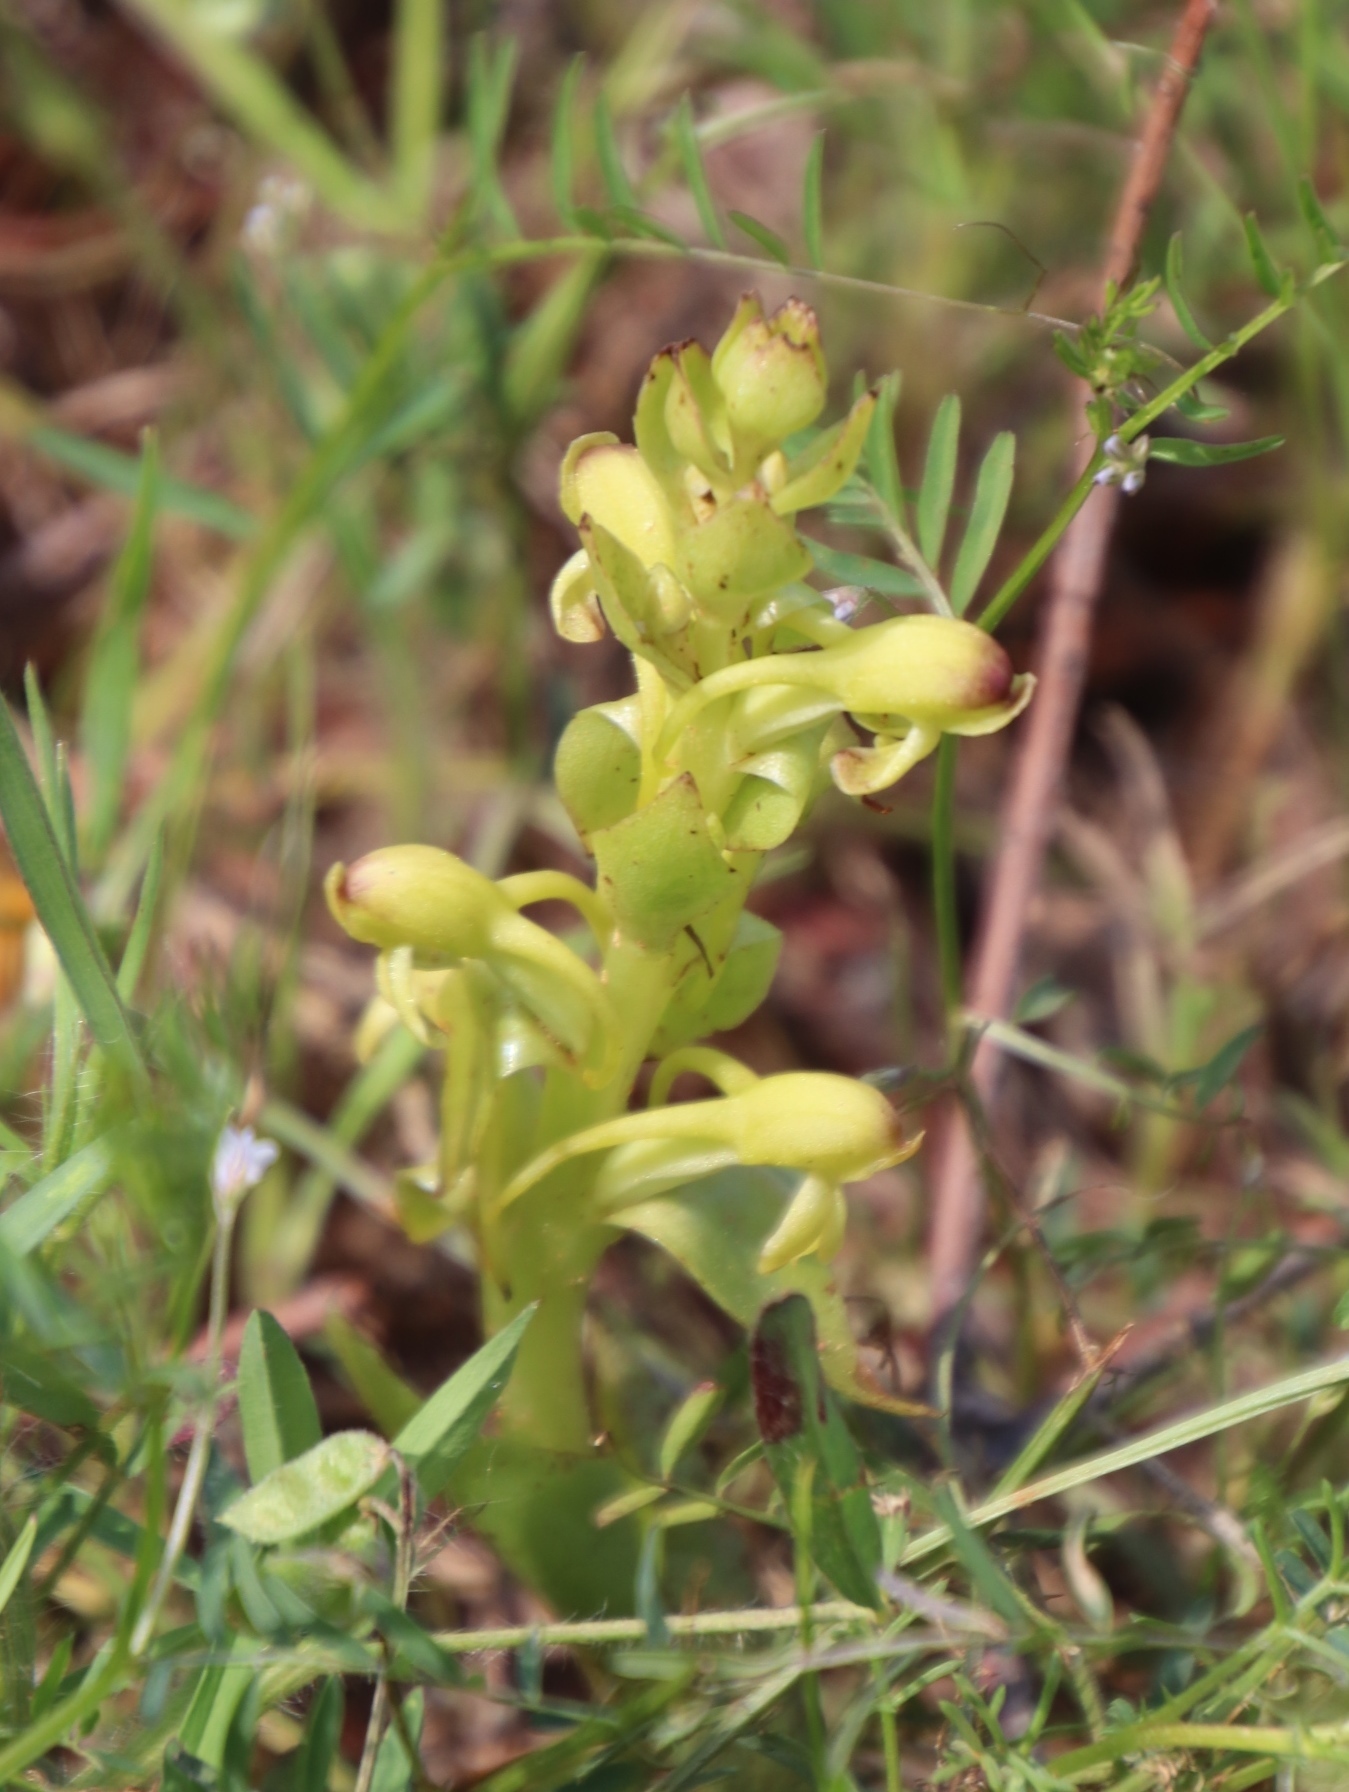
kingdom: Plantae
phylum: Tracheophyta
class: Liliopsida
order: Asparagales
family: Orchidaceae
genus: Satyrium
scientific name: Satyrium odorum
